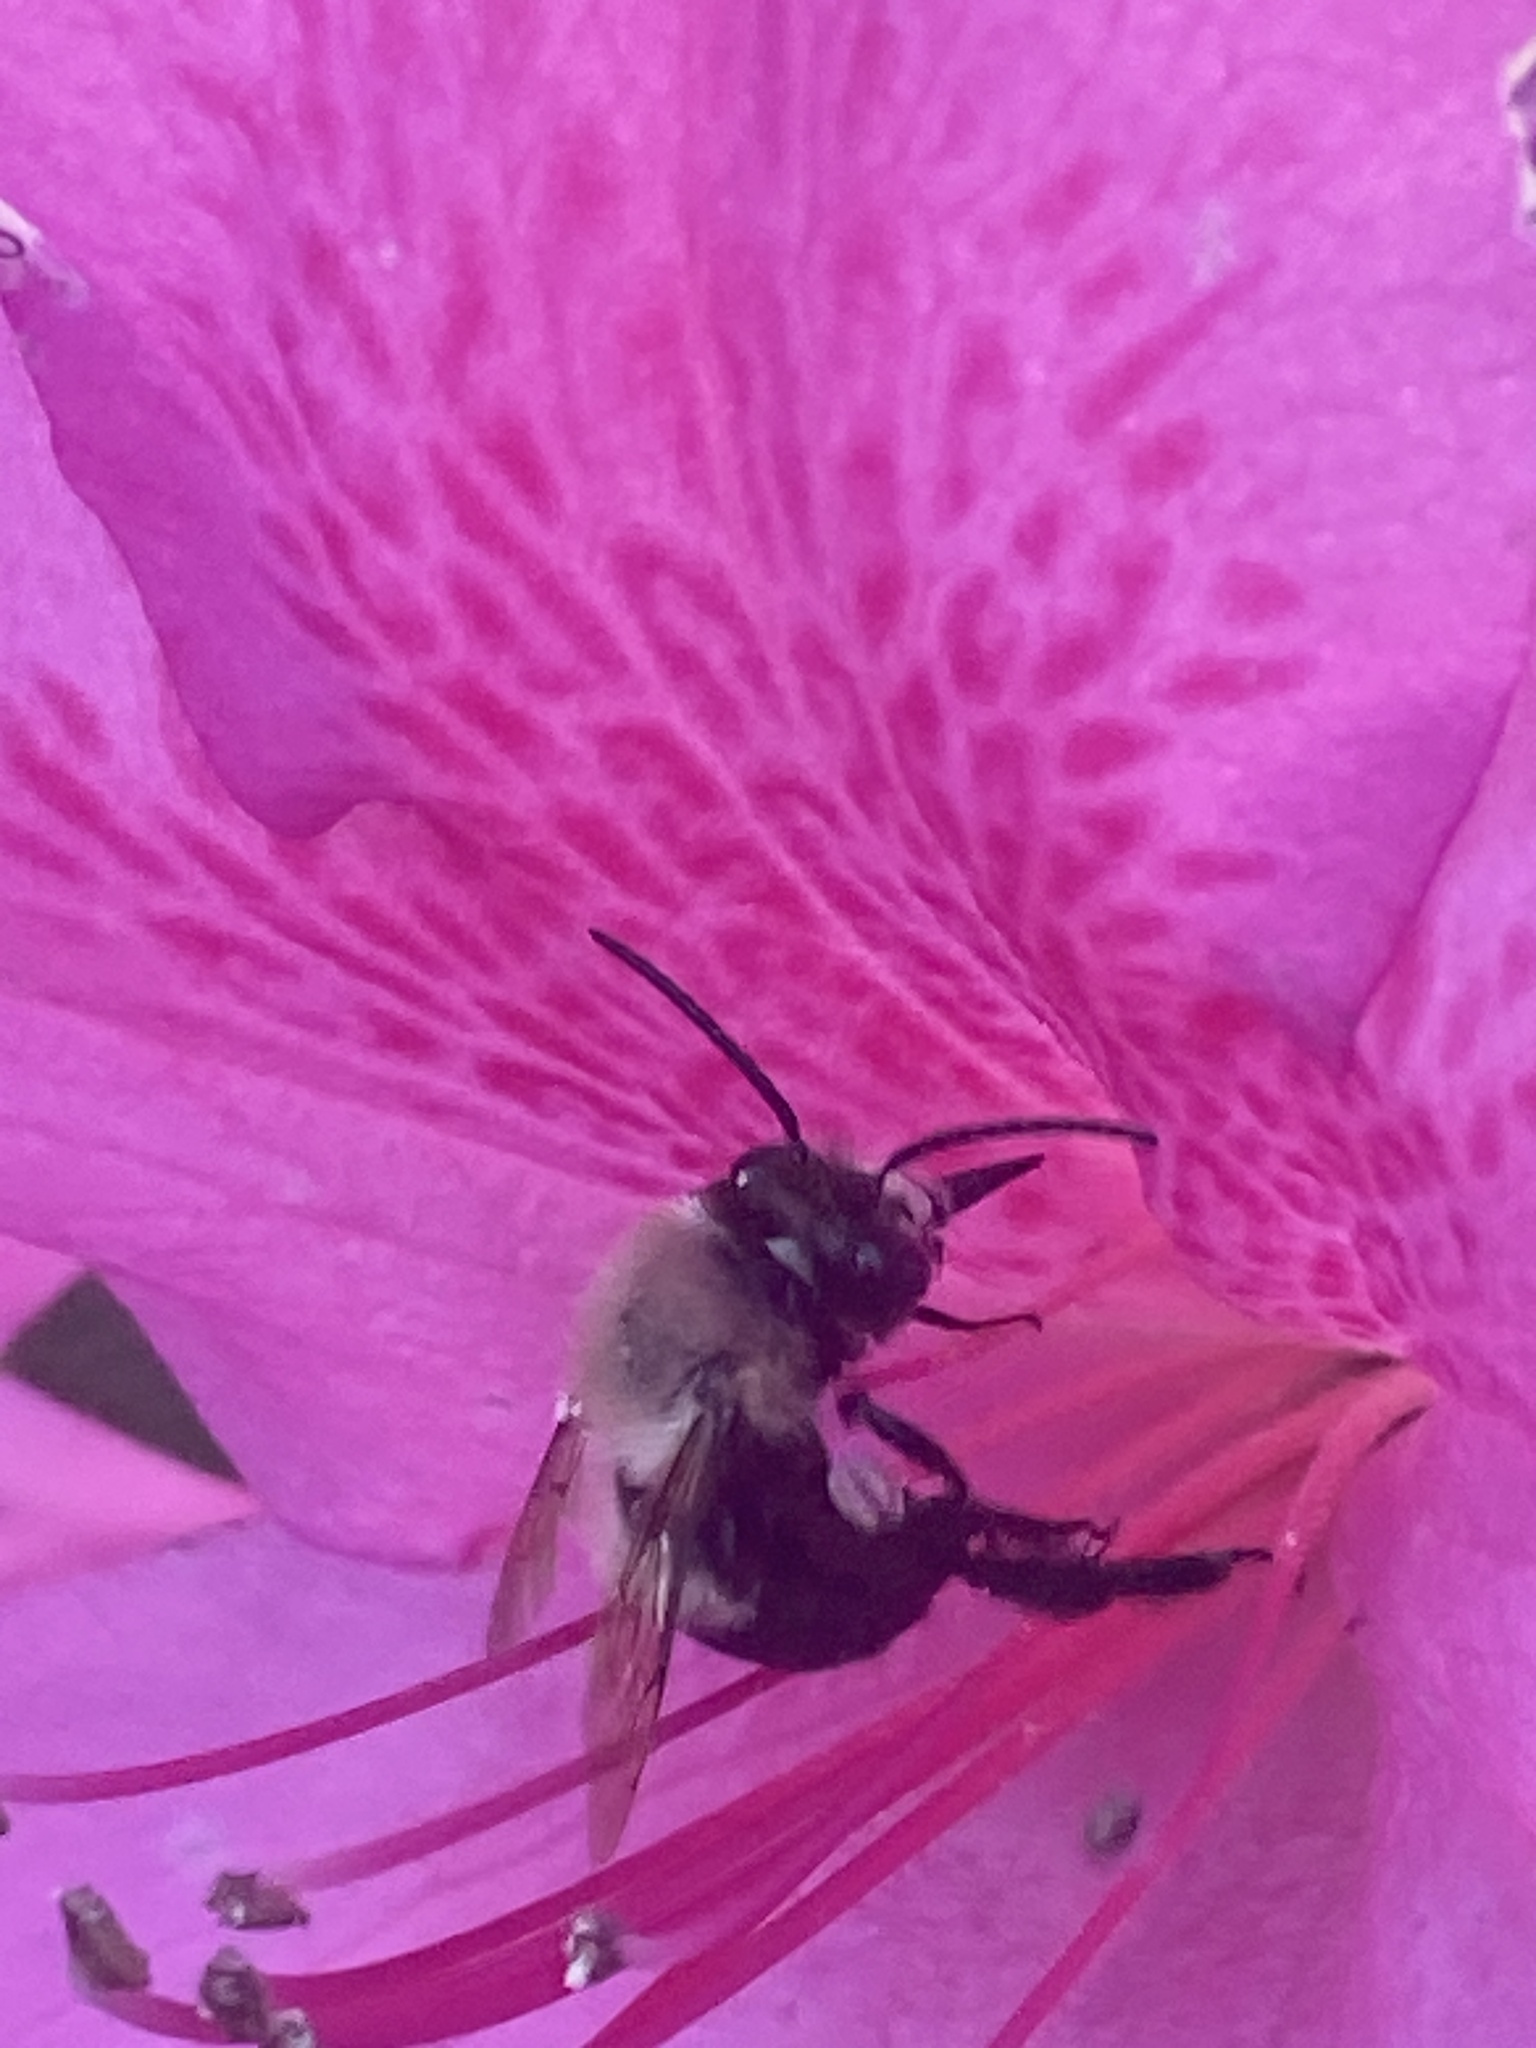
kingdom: Animalia
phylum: Arthropoda
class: Insecta
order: Hymenoptera
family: Apidae
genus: Habropoda
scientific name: Habropoda laboriosa
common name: Southeastern blueberry bee
